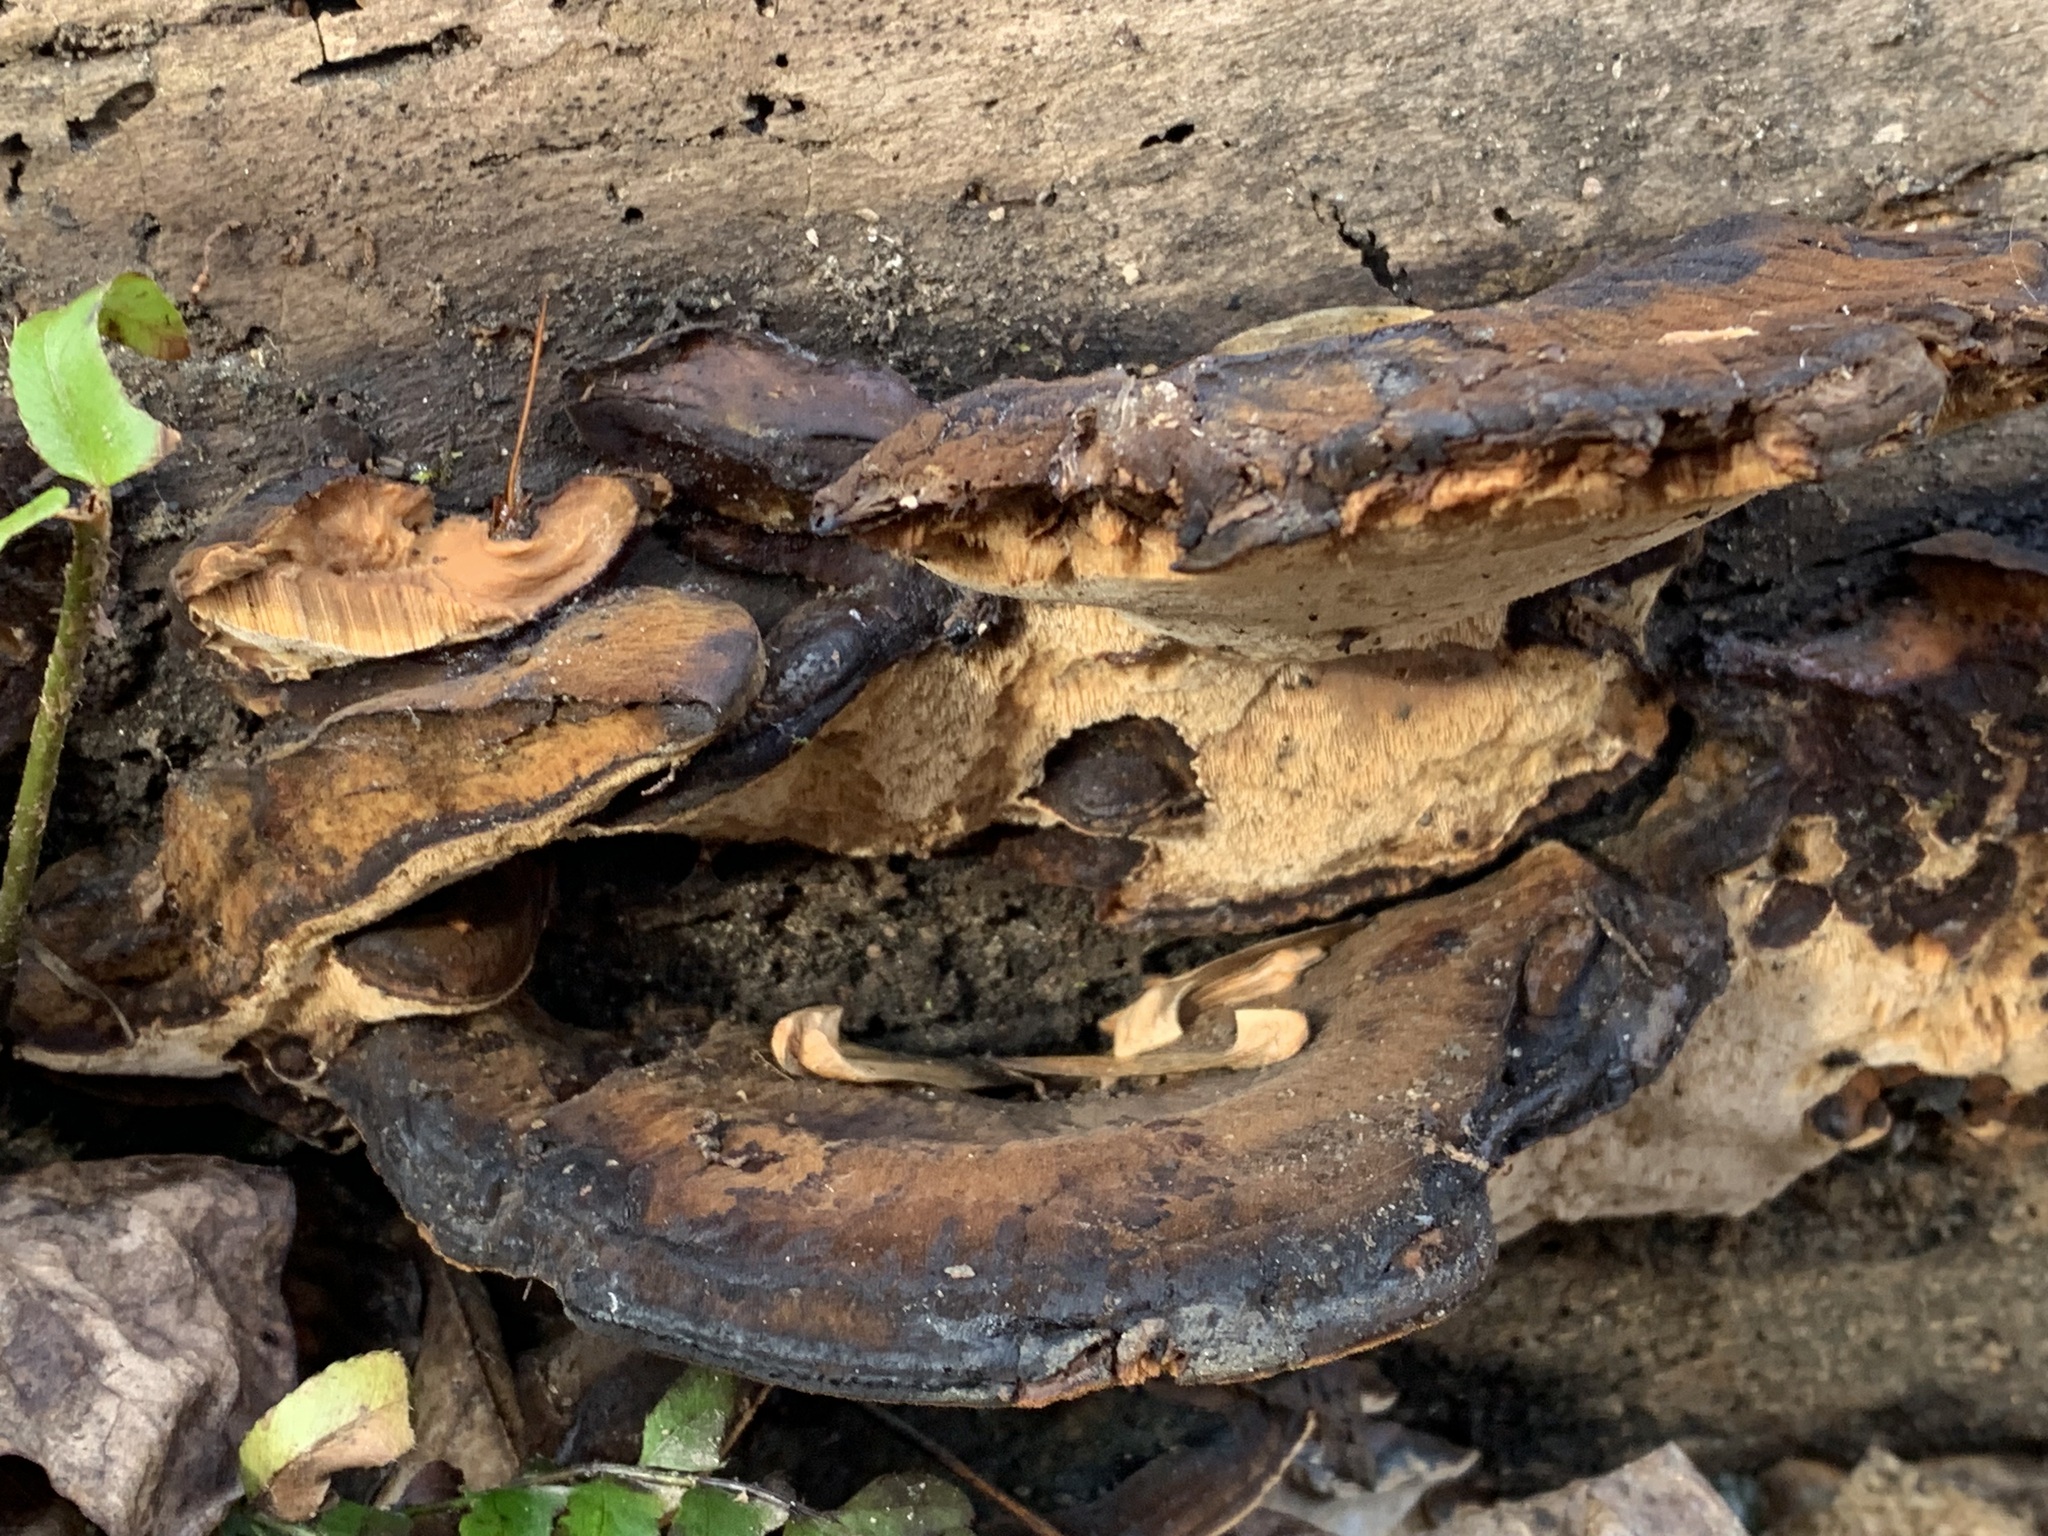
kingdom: Fungi
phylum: Basidiomycota
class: Agaricomycetes
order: Polyporales
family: Ischnodermataceae
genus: Ischnoderma
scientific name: Ischnoderma resinosum
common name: Resinous polypore
